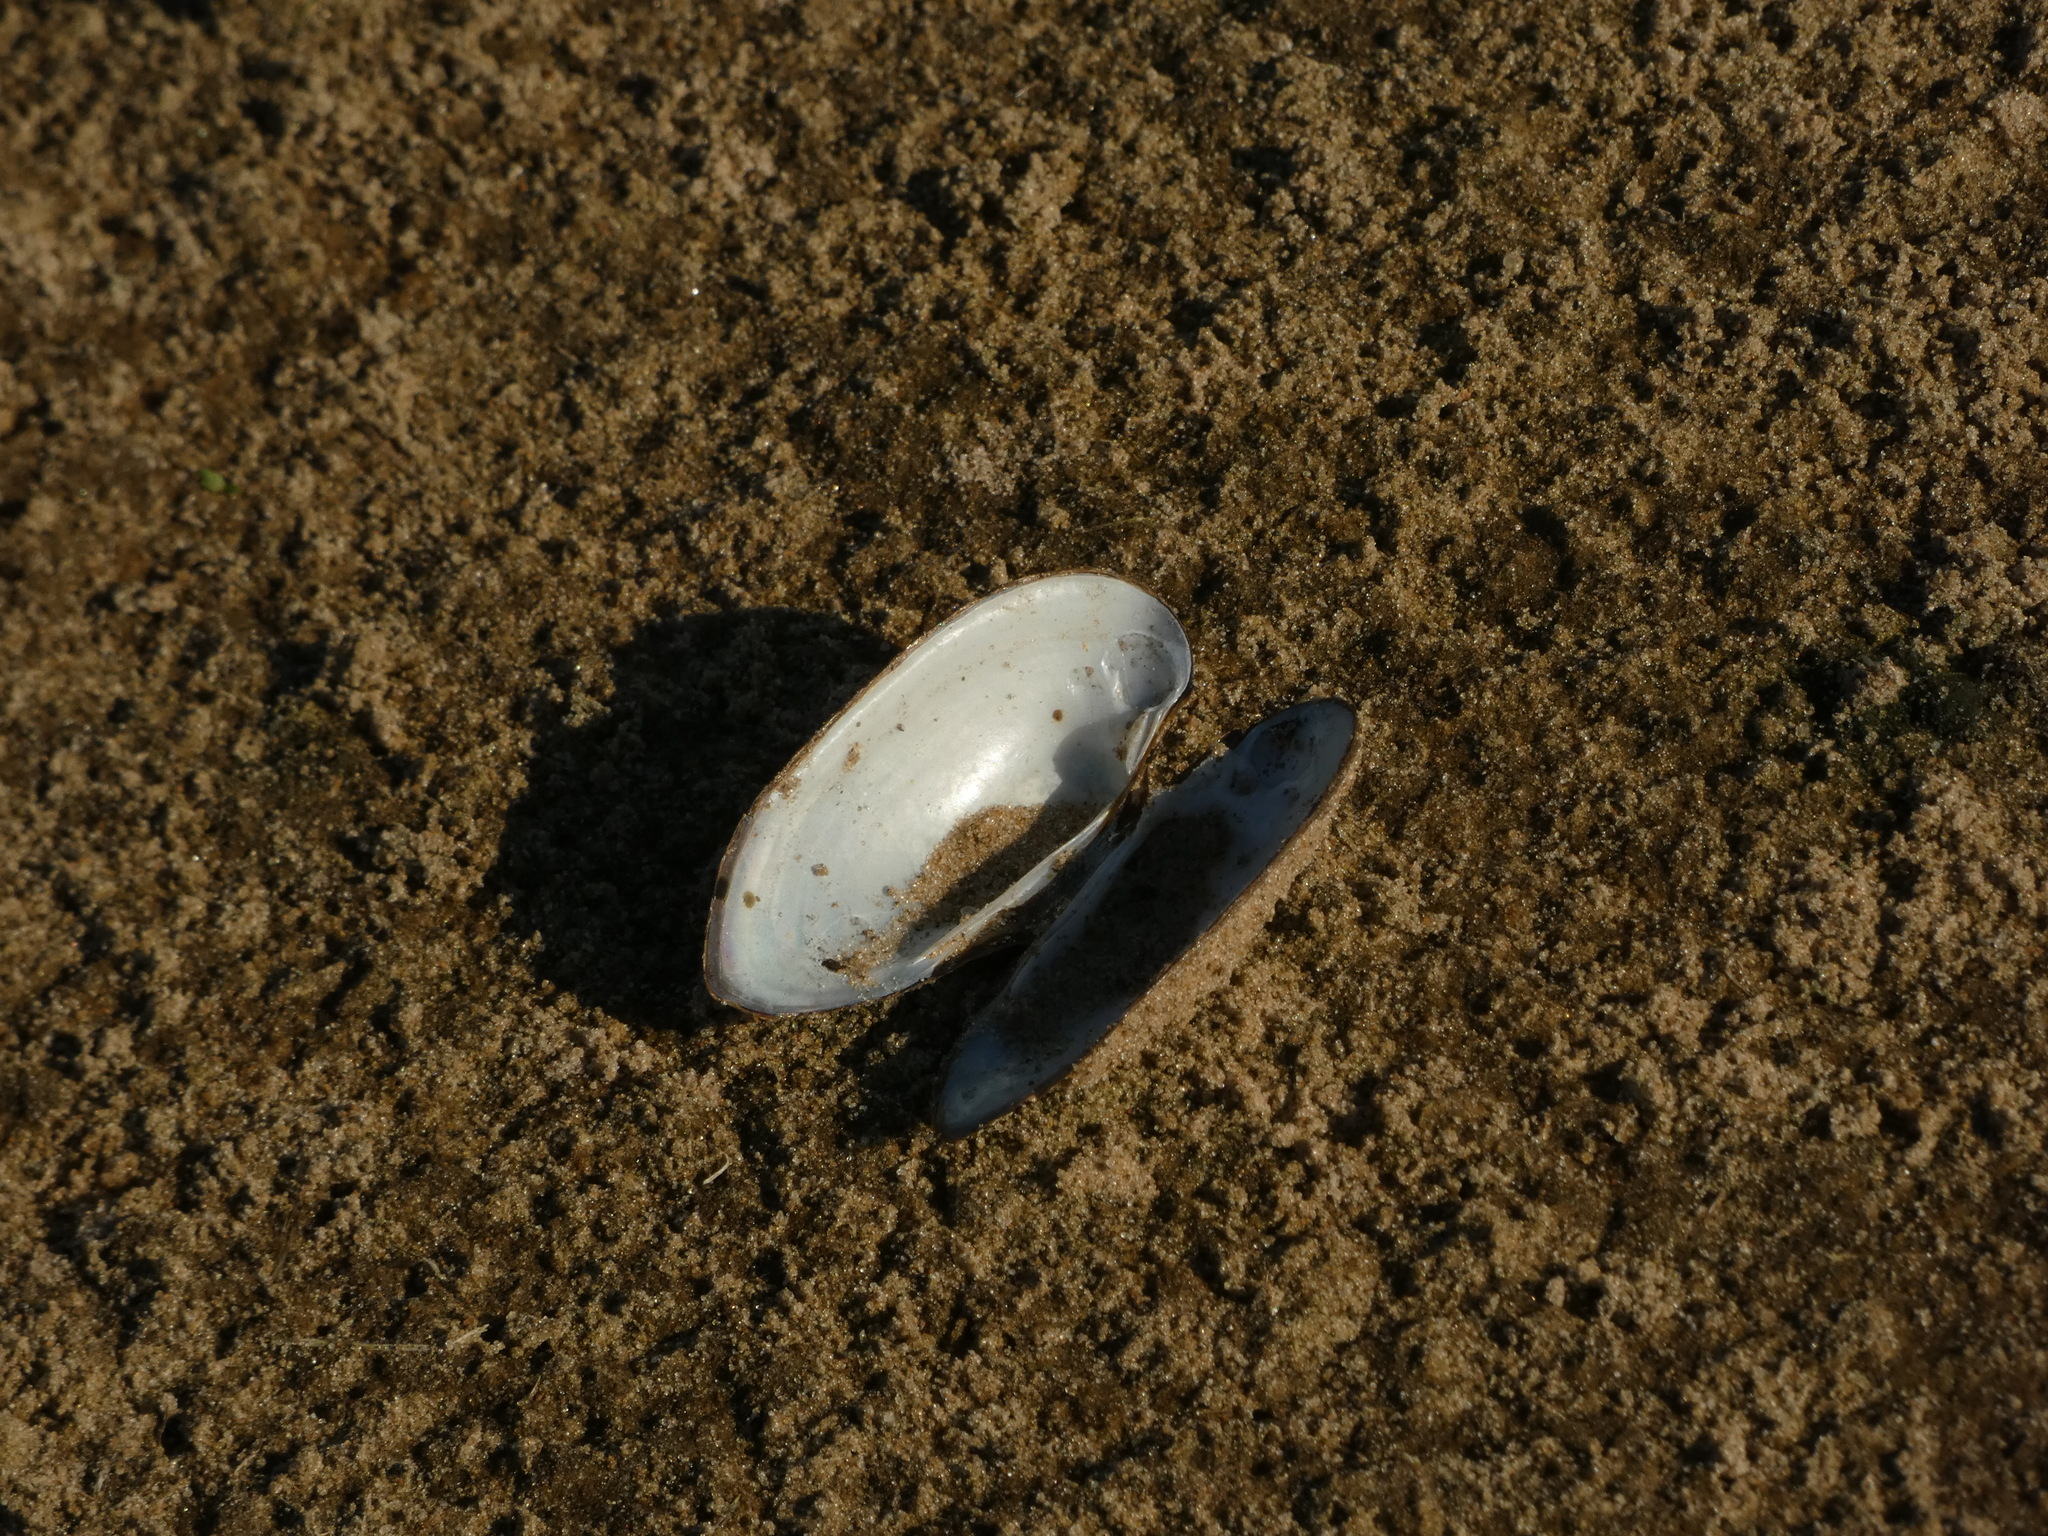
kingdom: Animalia
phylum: Mollusca
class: Bivalvia
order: Unionida
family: Unionidae
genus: Unio
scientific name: Unio pictorum
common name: Painter's mussel
